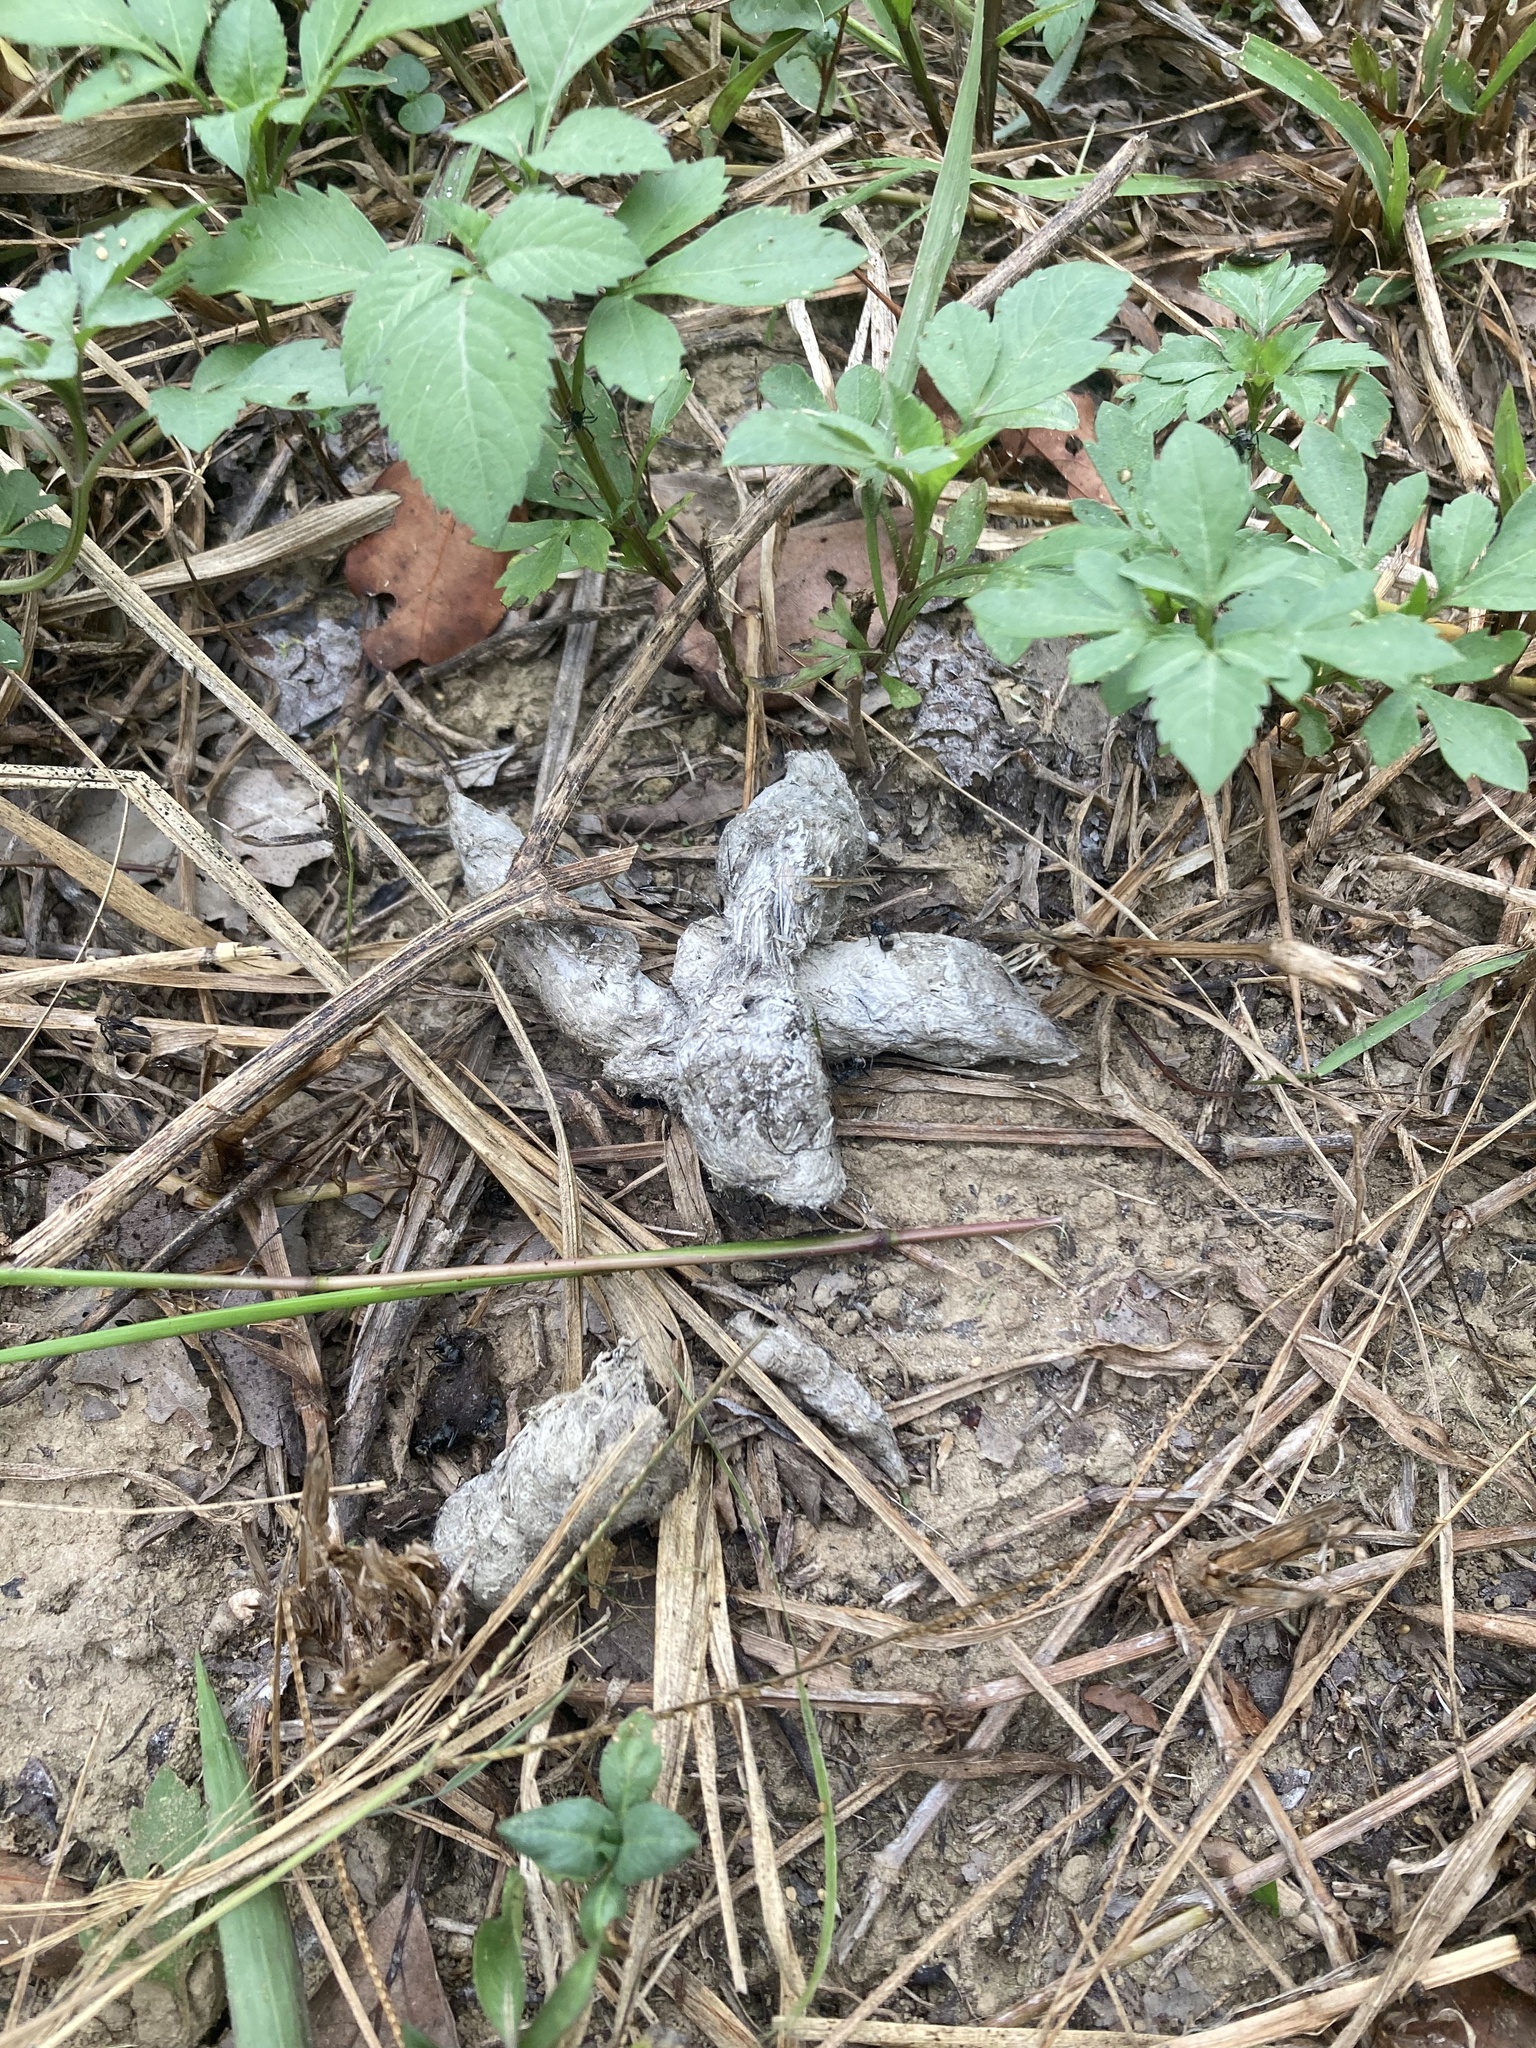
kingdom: Animalia
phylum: Chordata
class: Mammalia
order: Carnivora
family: Felidae
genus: Prionailurus
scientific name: Prionailurus bengalensis
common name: Leopard cat
